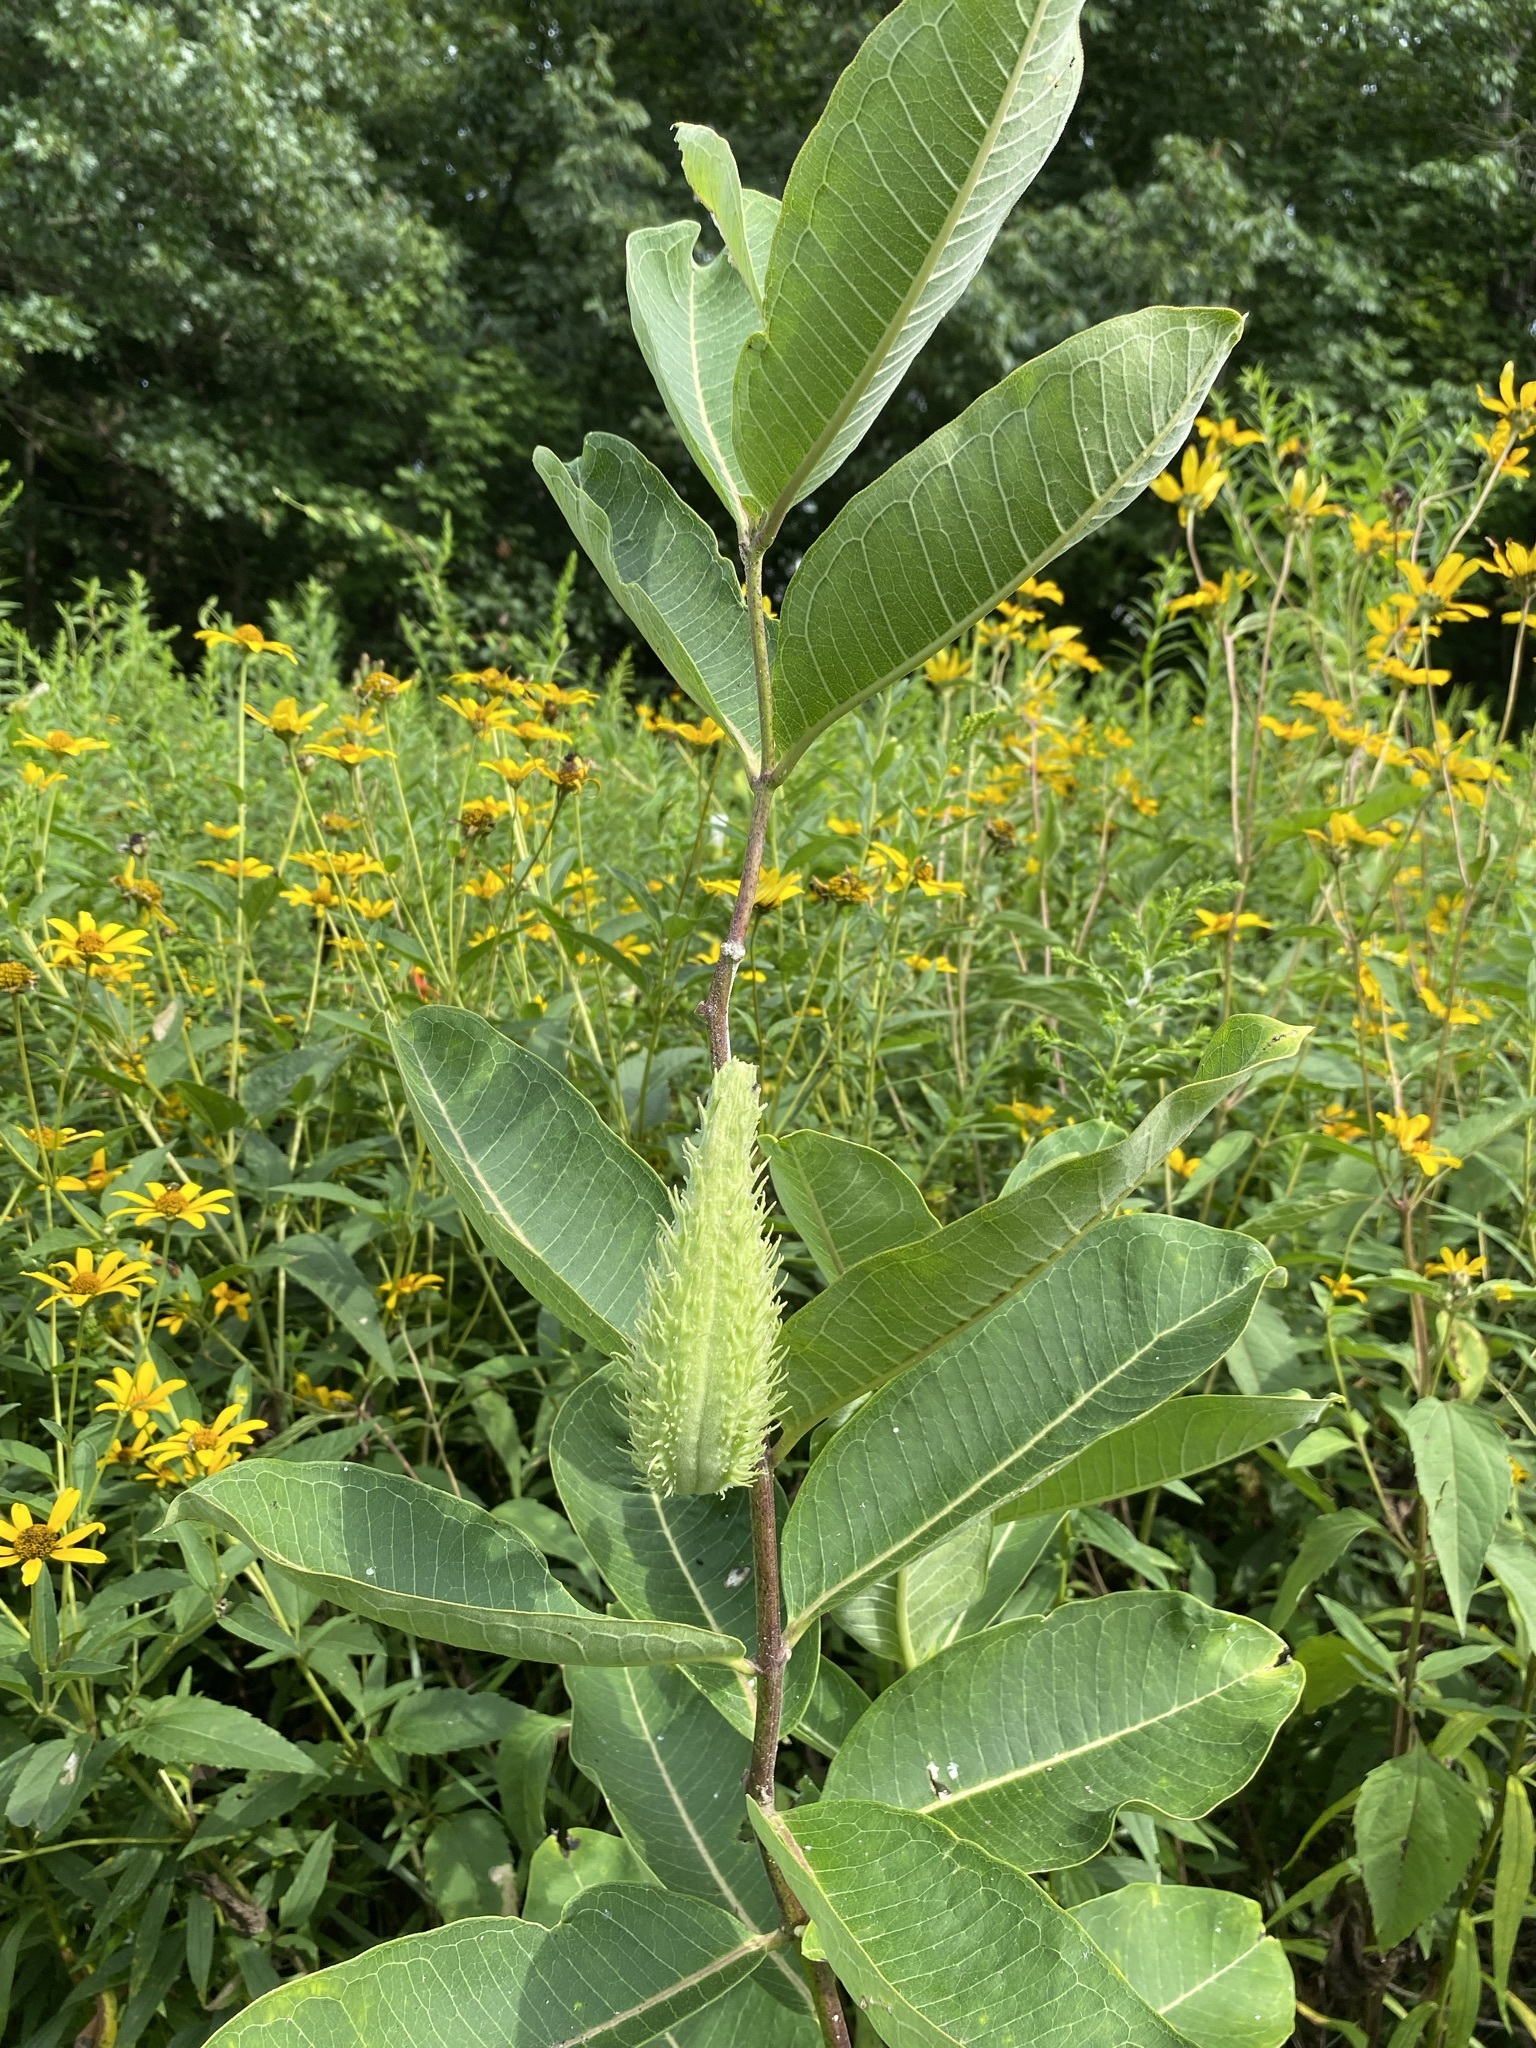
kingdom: Plantae
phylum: Tracheophyta
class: Magnoliopsida
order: Gentianales
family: Apocynaceae
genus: Asclepias
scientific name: Asclepias syriaca
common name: Common milkweed
